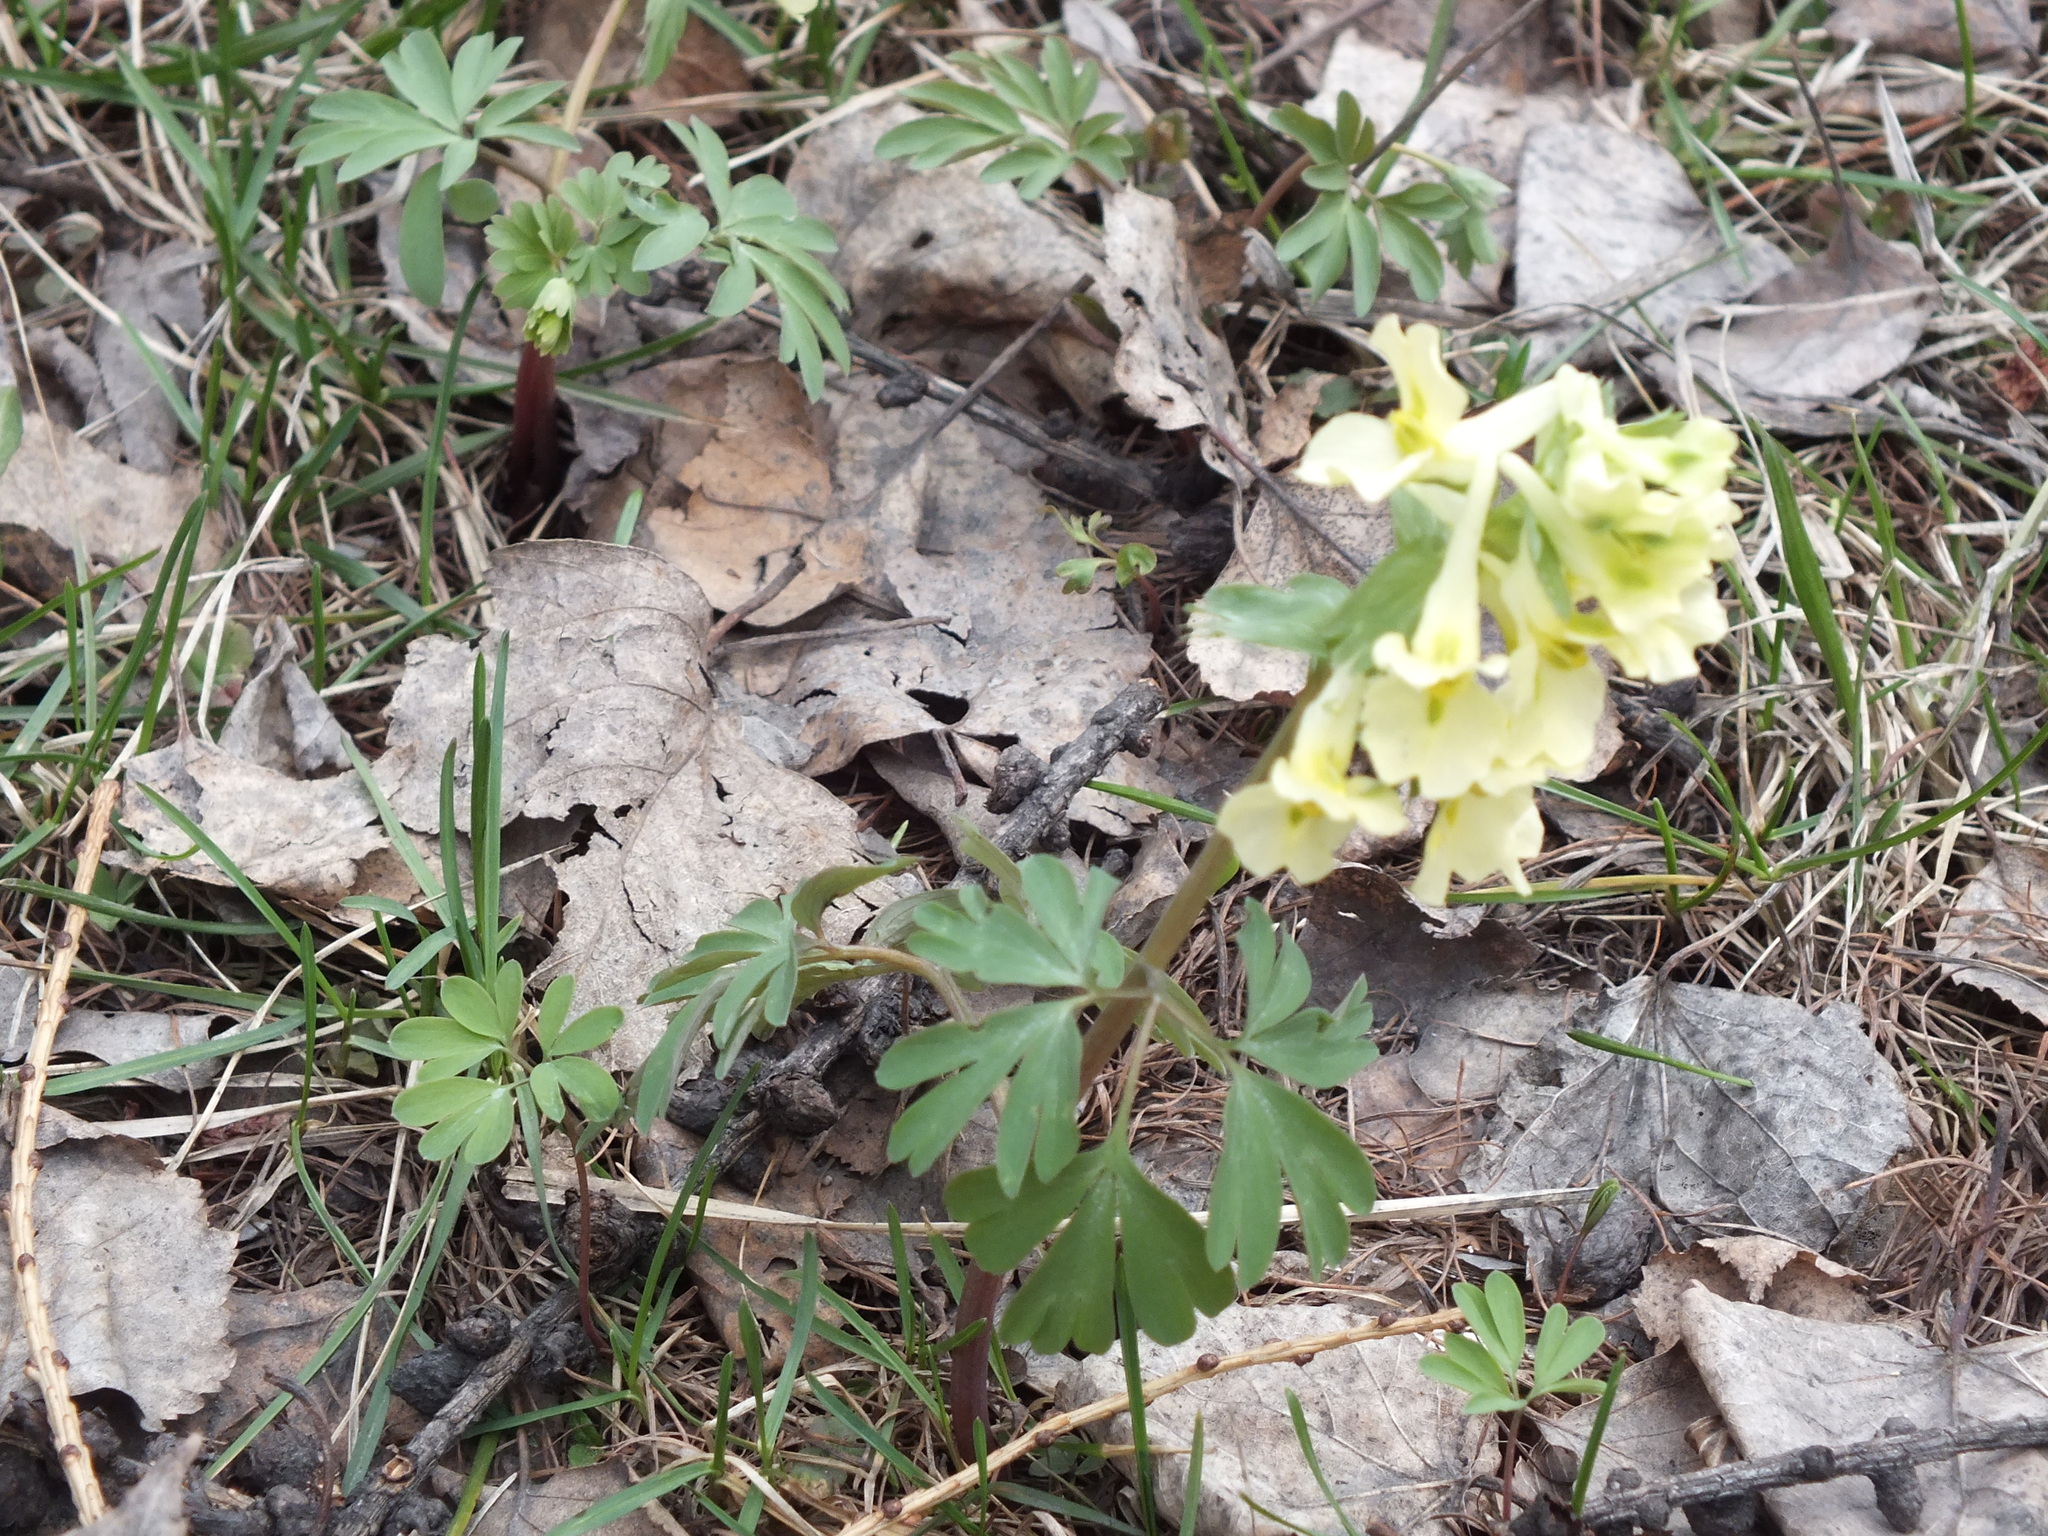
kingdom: Plantae
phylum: Tracheophyta
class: Magnoliopsida
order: Ranunculales
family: Papaveraceae
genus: Corydalis
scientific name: Corydalis bracteata
